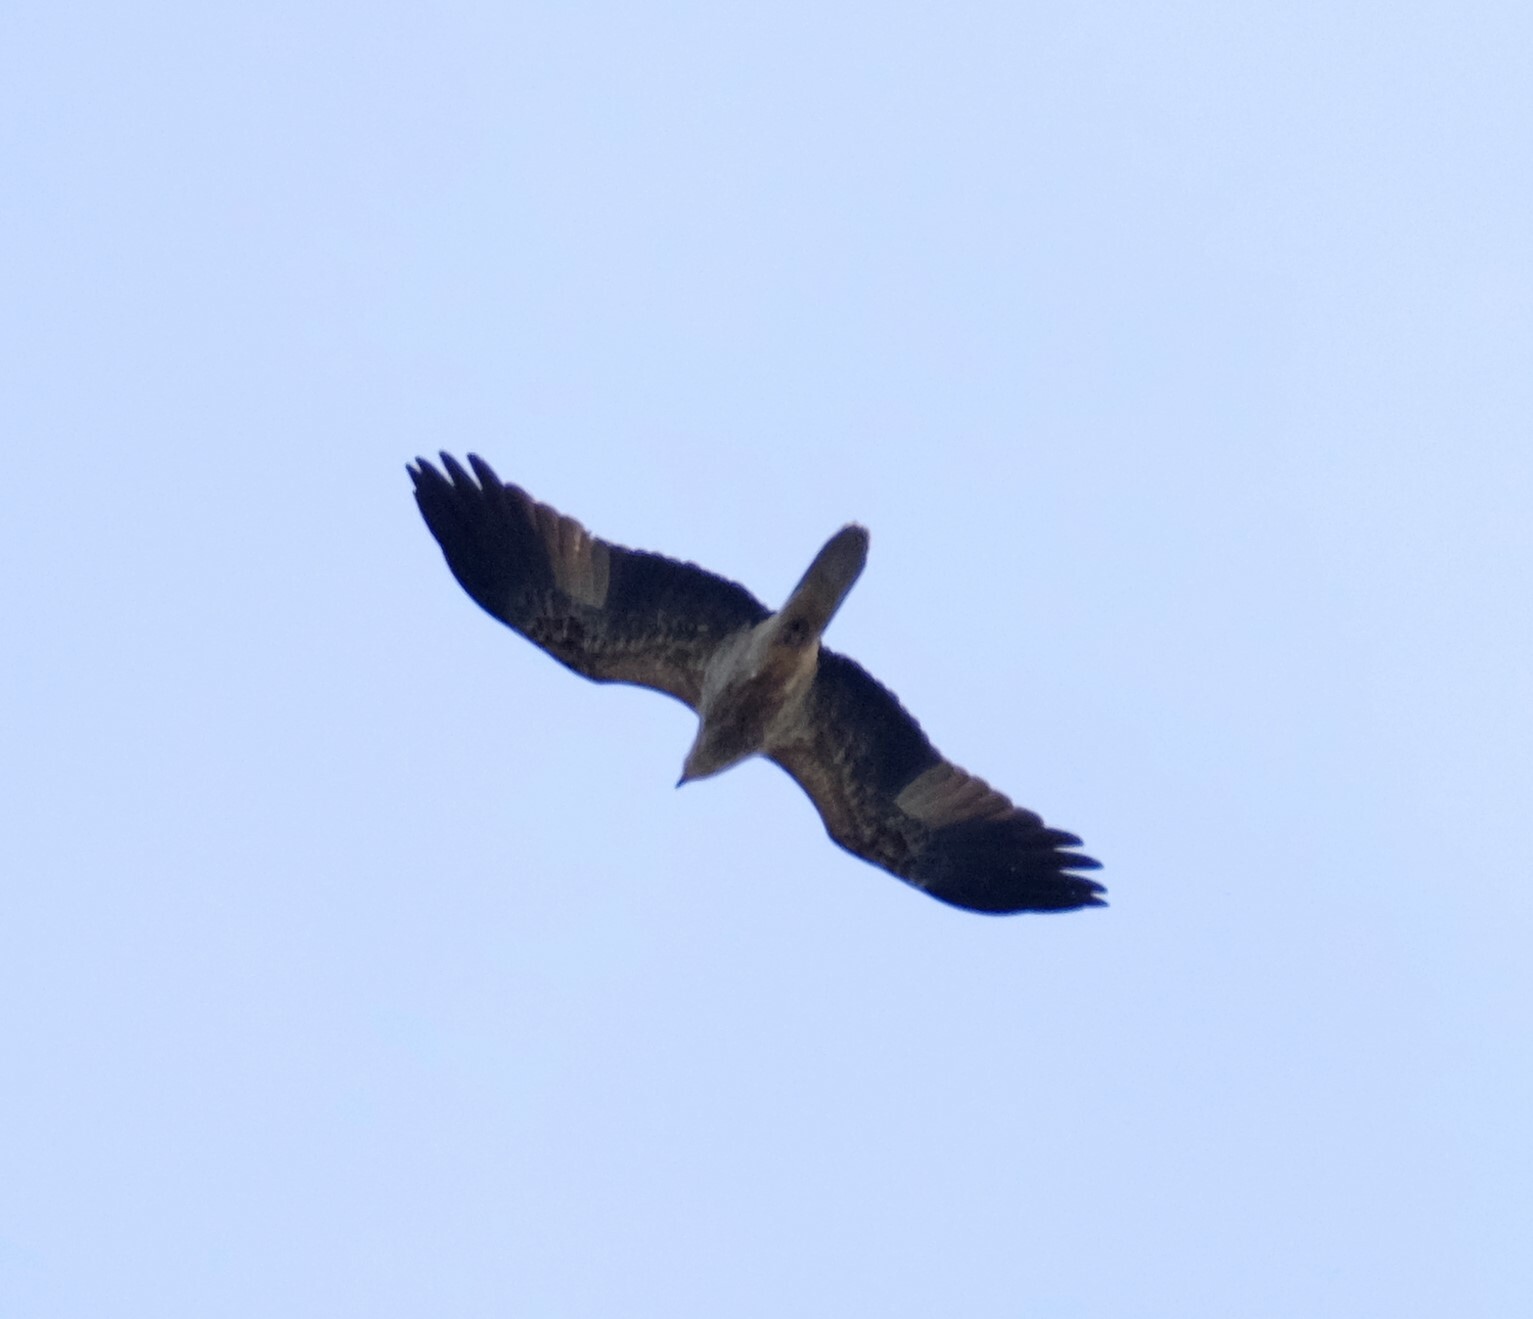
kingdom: Animalia
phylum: Chordata
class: Aves
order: Accipitriformes
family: Accipitridae
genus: Haliastur
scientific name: Haliastur sphenurus
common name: Whistling kite
